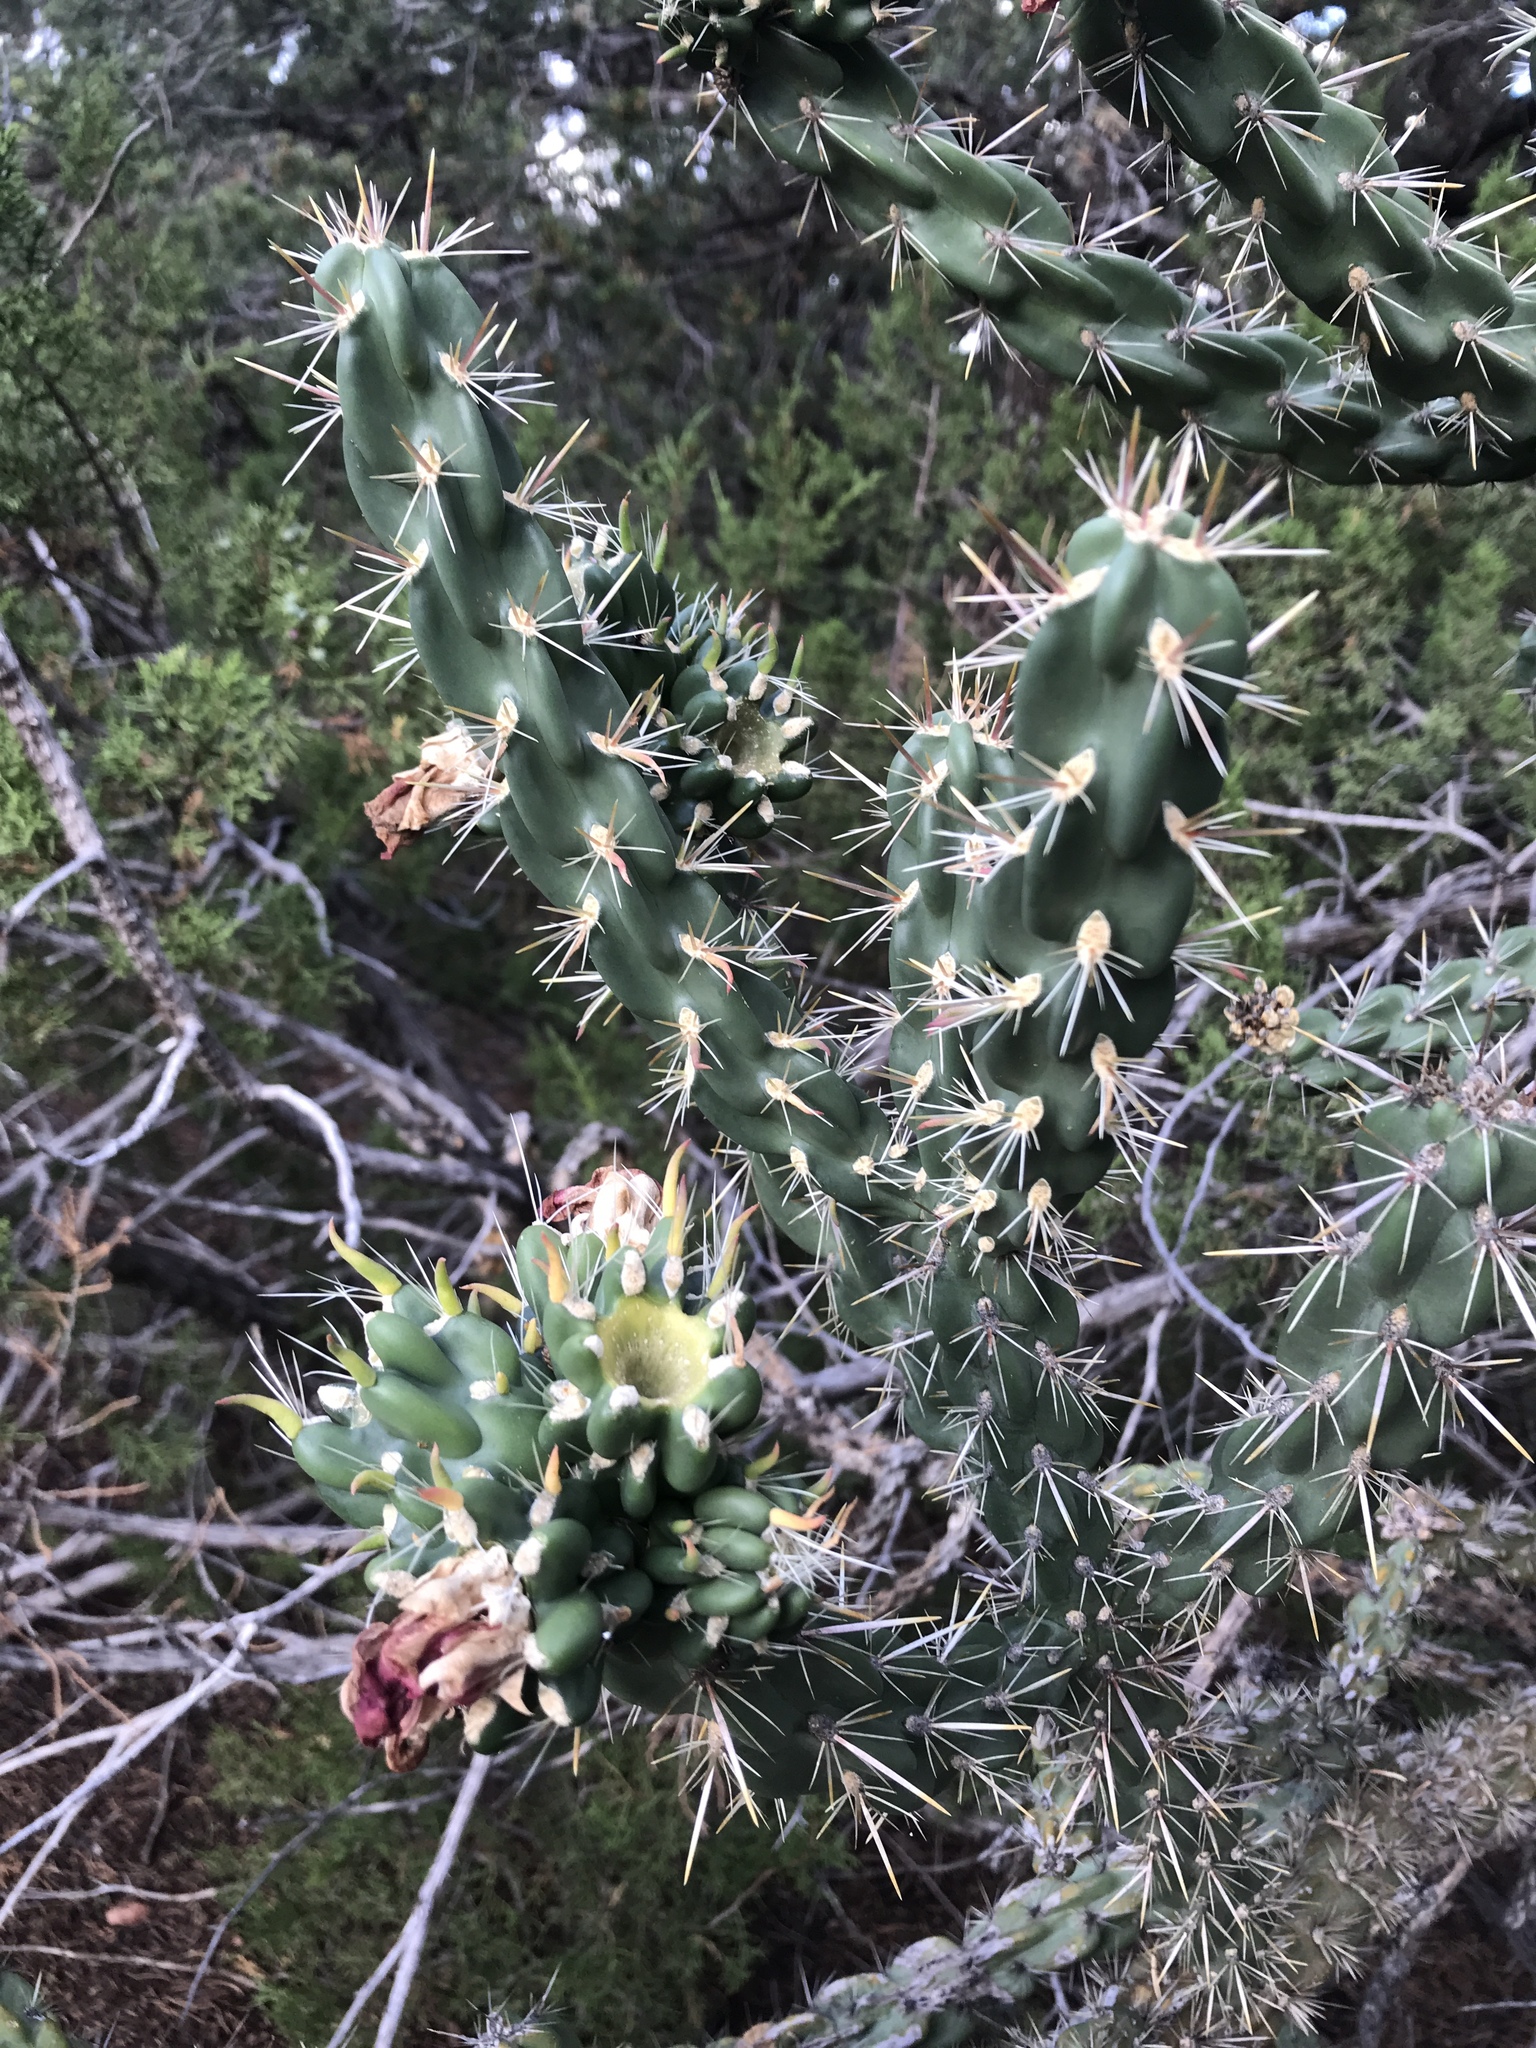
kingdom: Plantae
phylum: Tracheophyta
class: Magnoliopsida
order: Caryophyllales
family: Cactaceae
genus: Cylindropuntia
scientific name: Cylindropuntia imbricata
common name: Candelabrum cactus
